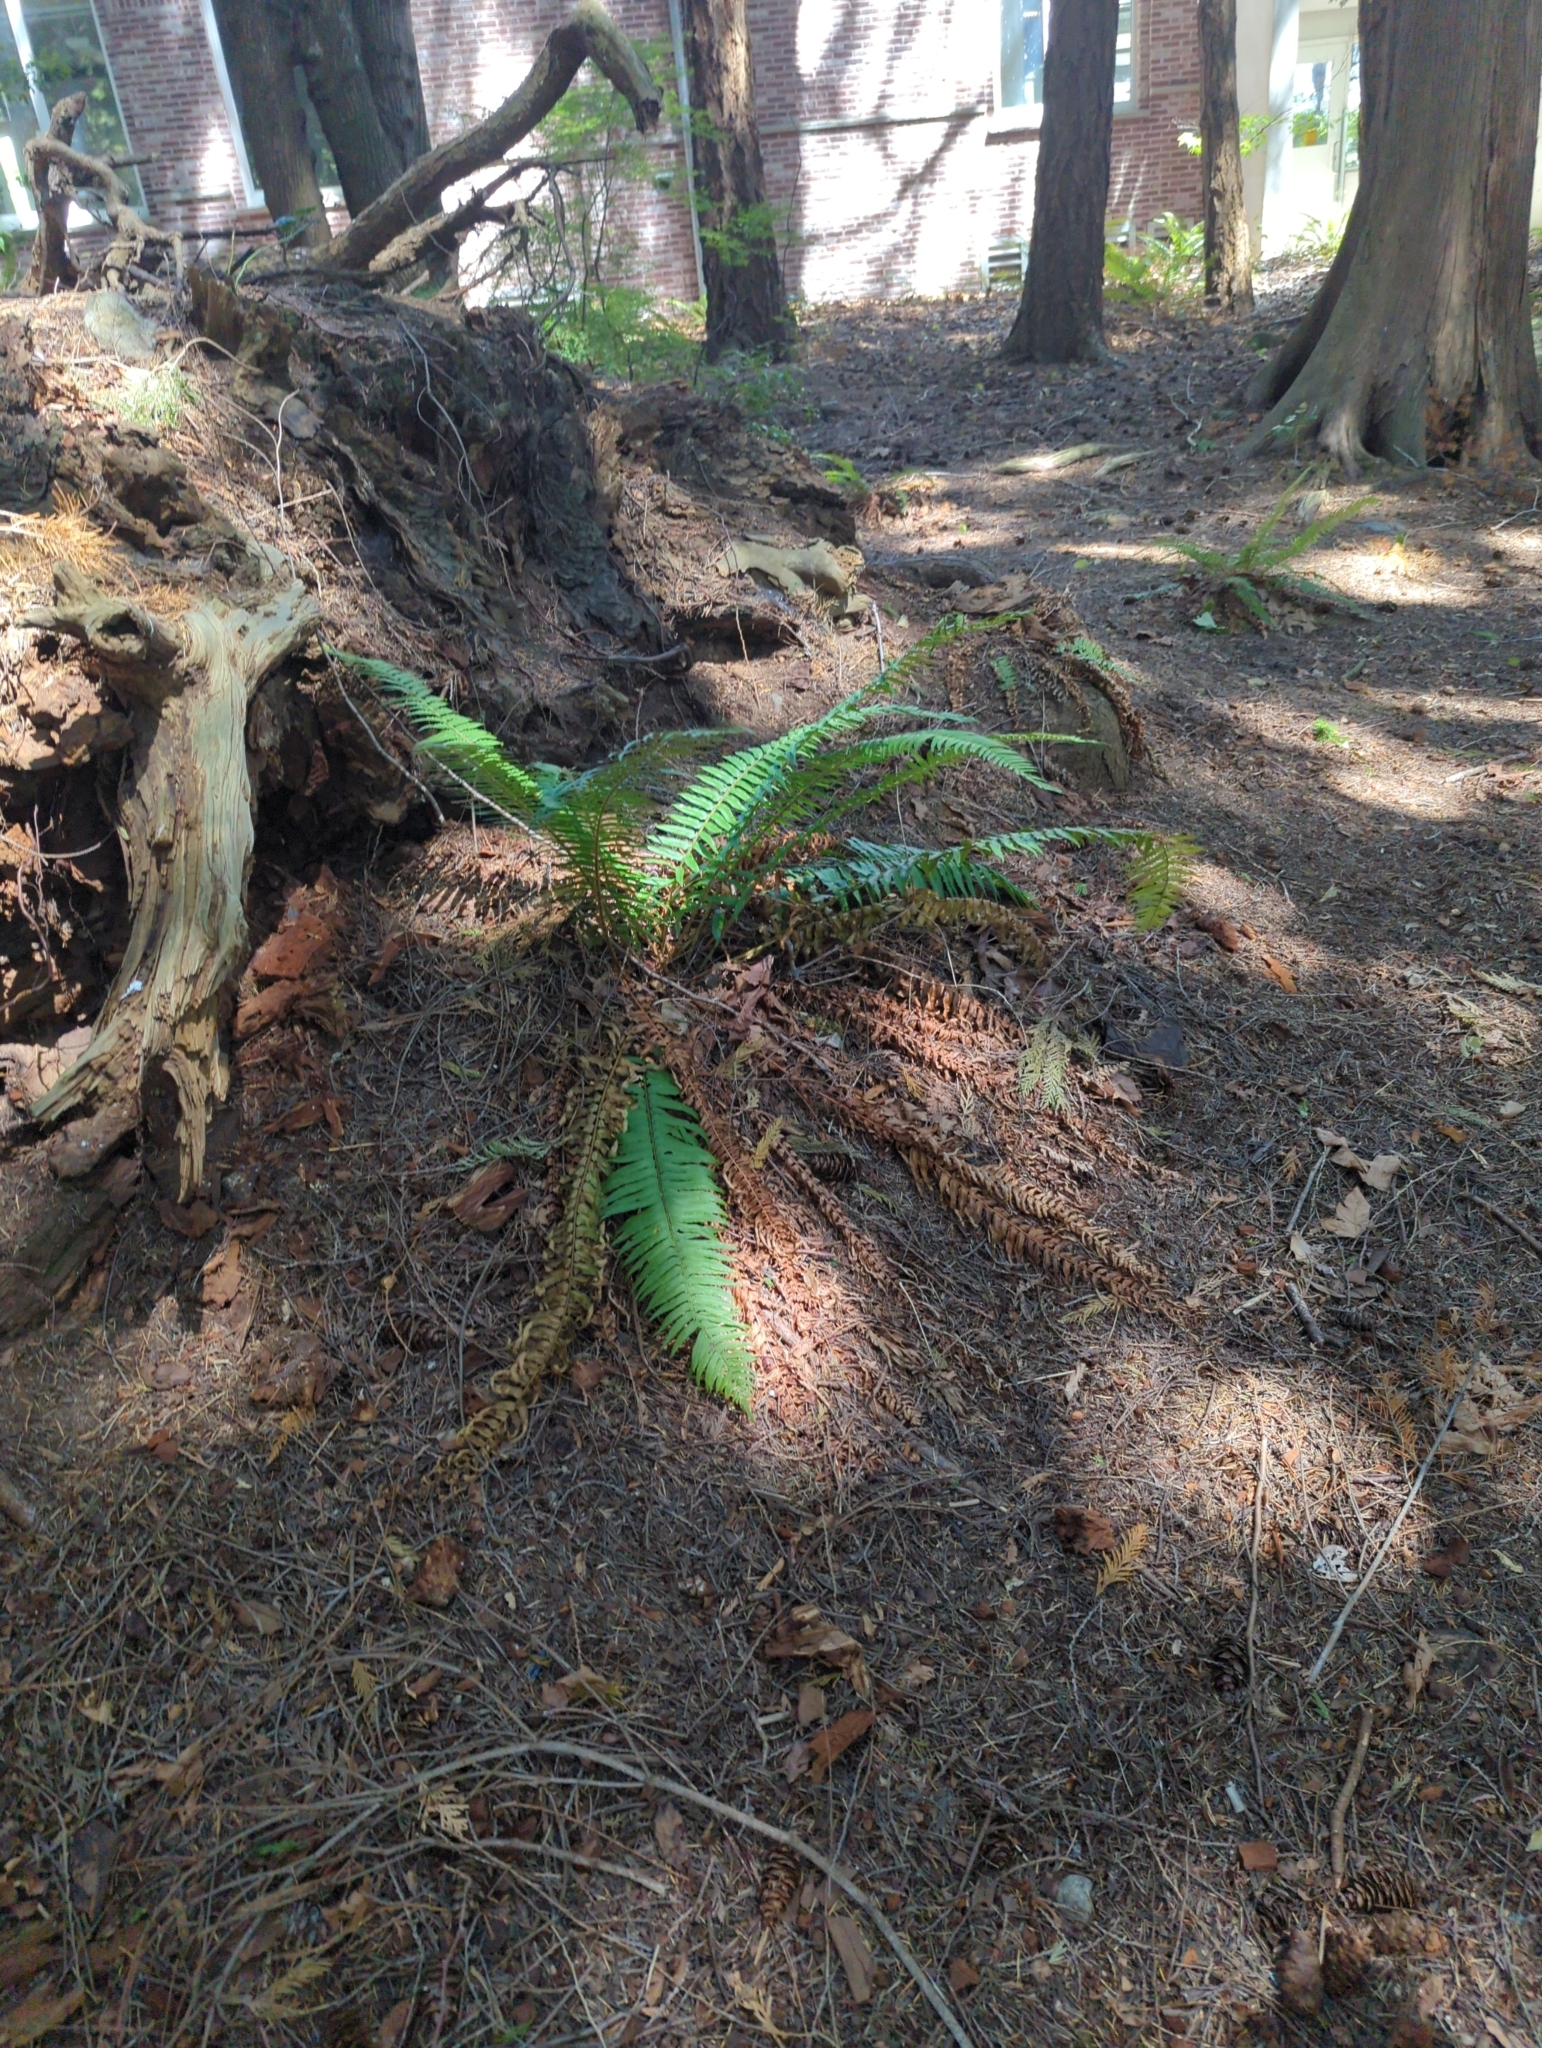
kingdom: Plantae
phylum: Tracheophyta
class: Polypodiopsida
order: Polypodiales
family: Dryopteridaceae
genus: Polystichum
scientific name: Polystichum munitum
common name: Western sword-fern
